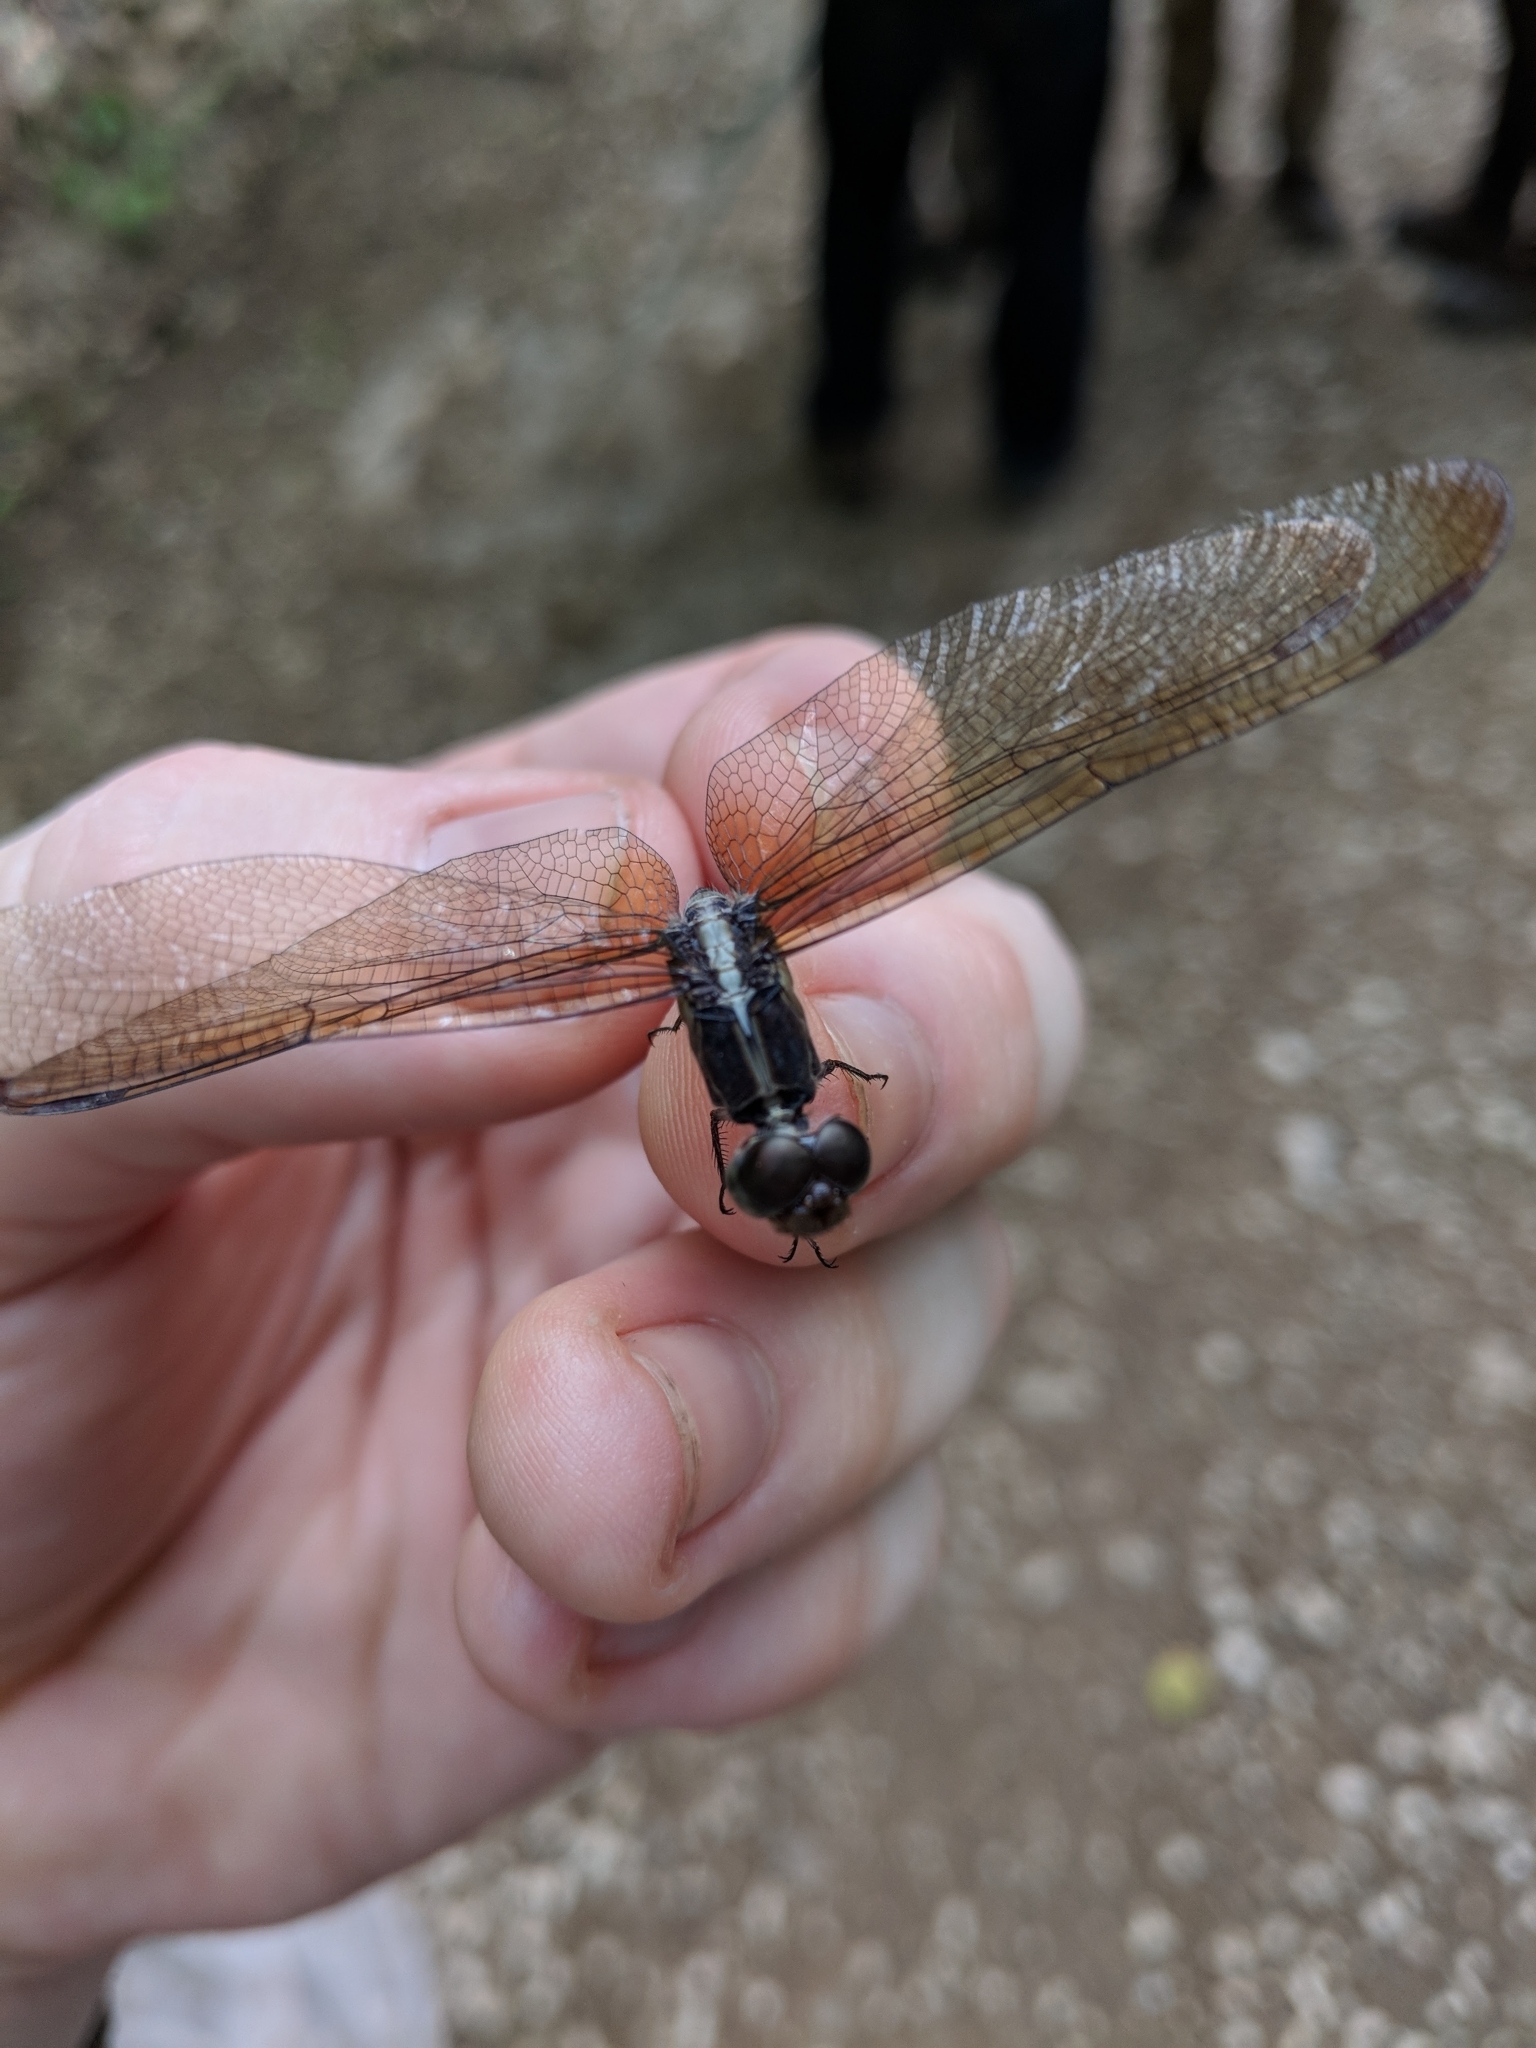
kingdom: Animalia
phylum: Arthropoda
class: Insecta
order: Odonata
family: Libellulidae
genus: Erythrodiplax
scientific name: Erythrodiplax funerea
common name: Black-winged dragonlet
